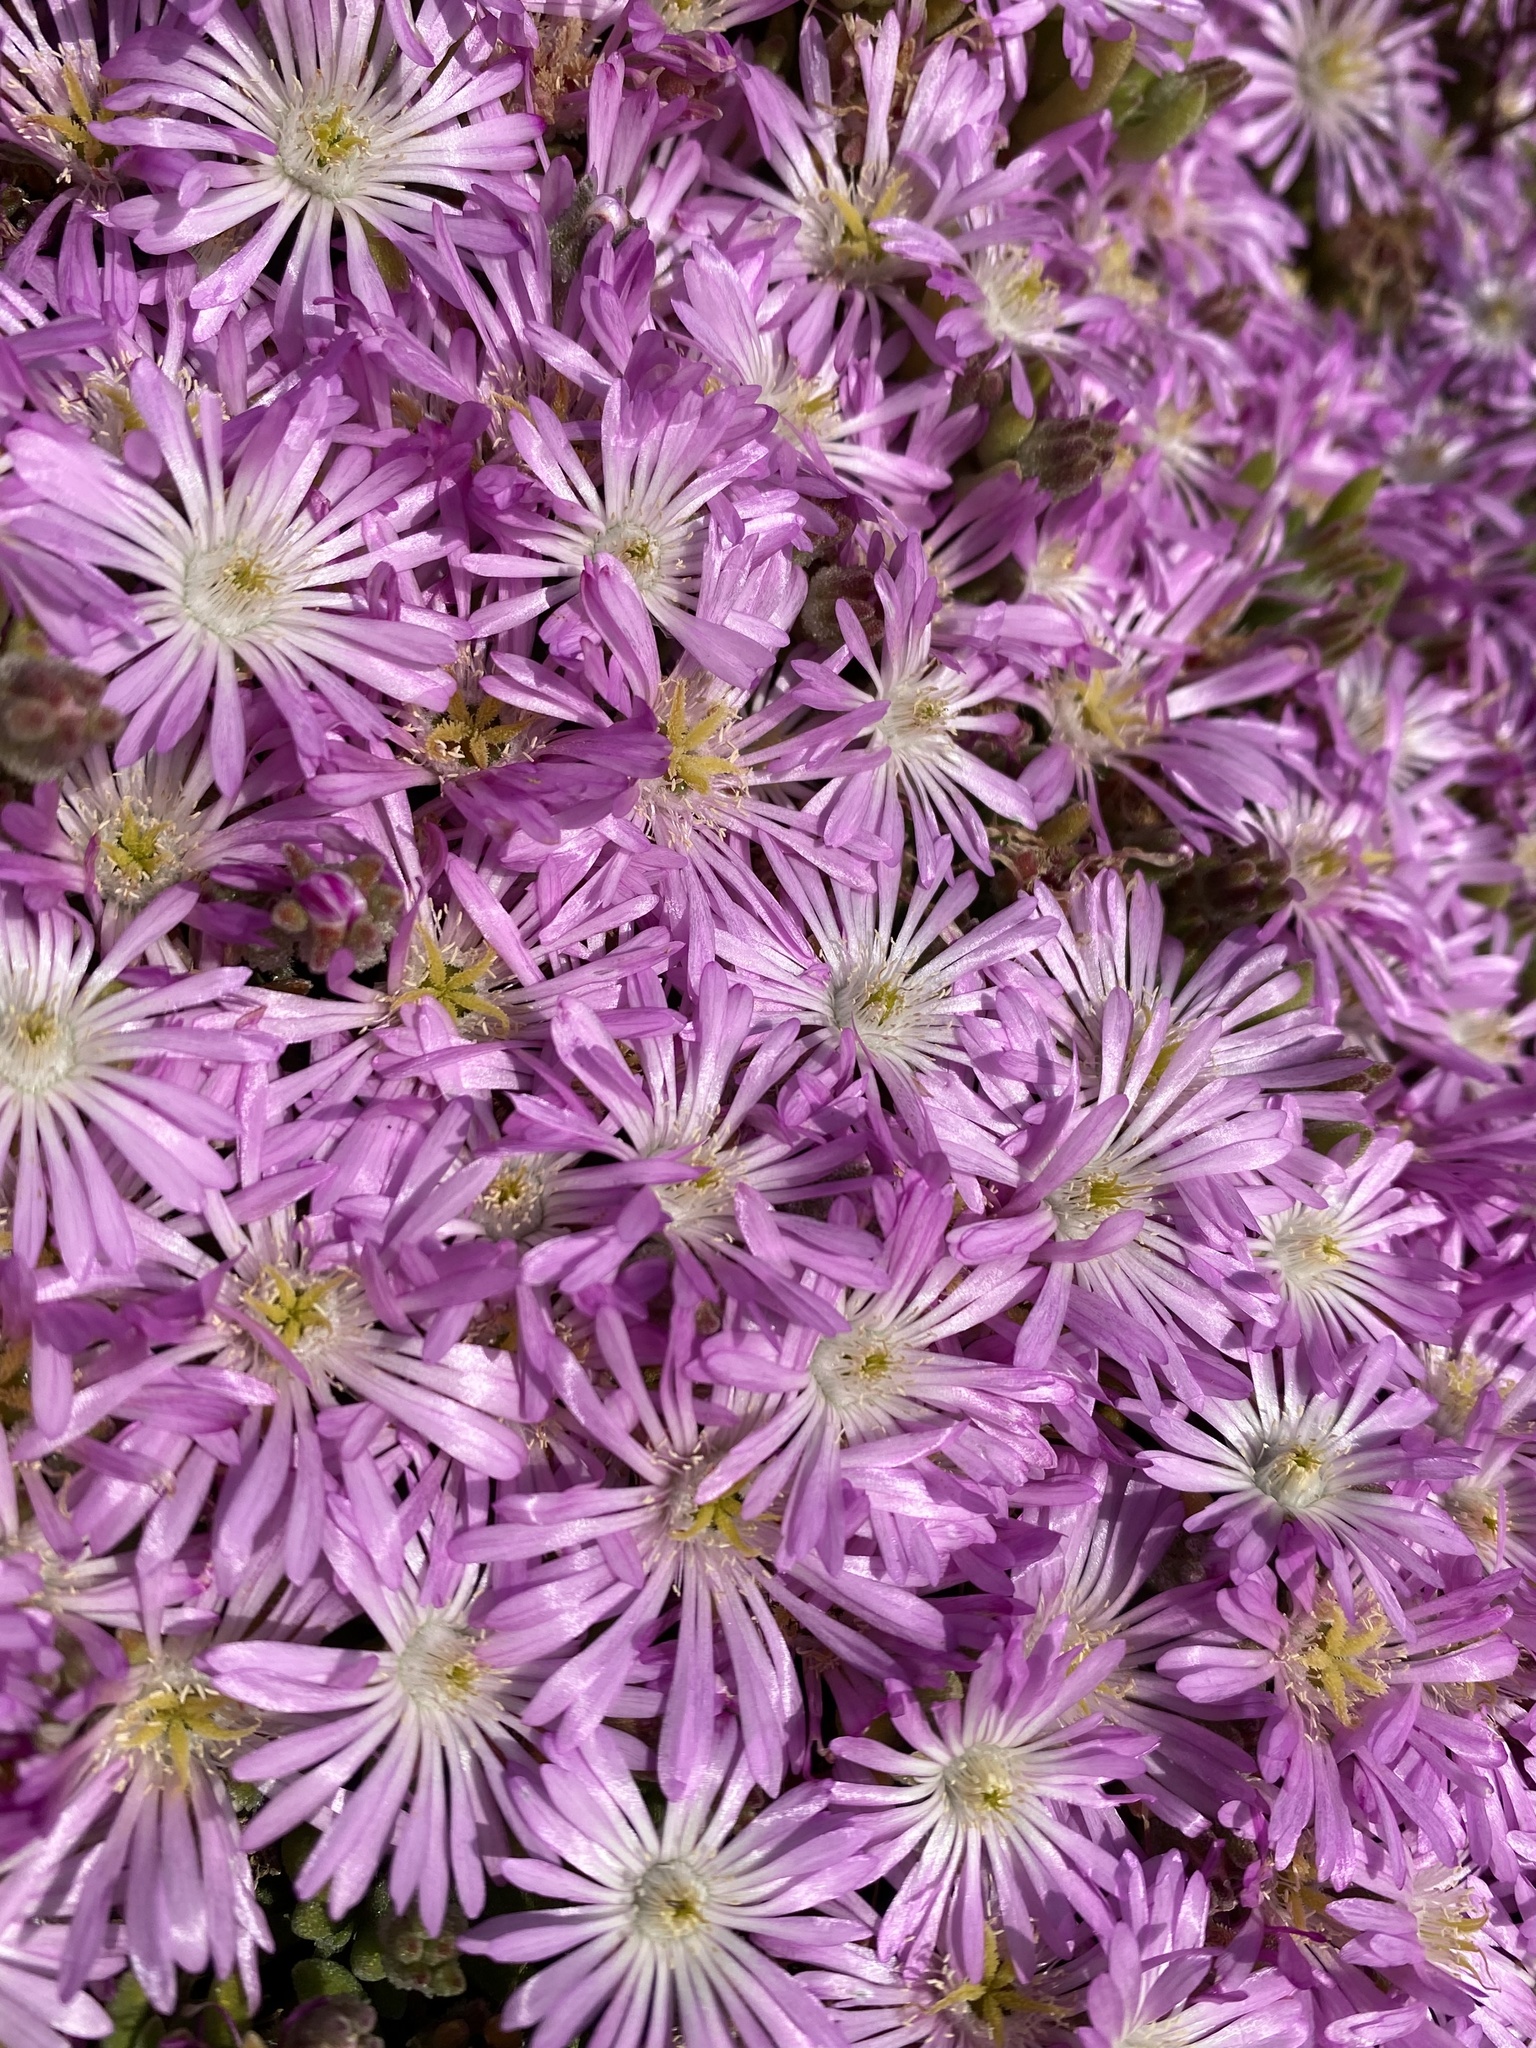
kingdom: Plantae
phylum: Tracheophyta
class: Magnoliopsida
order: Caryophyllales
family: Aizoaceae
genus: Drosanthemum
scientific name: Drosanthemum floribundum
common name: Pale dewplant
